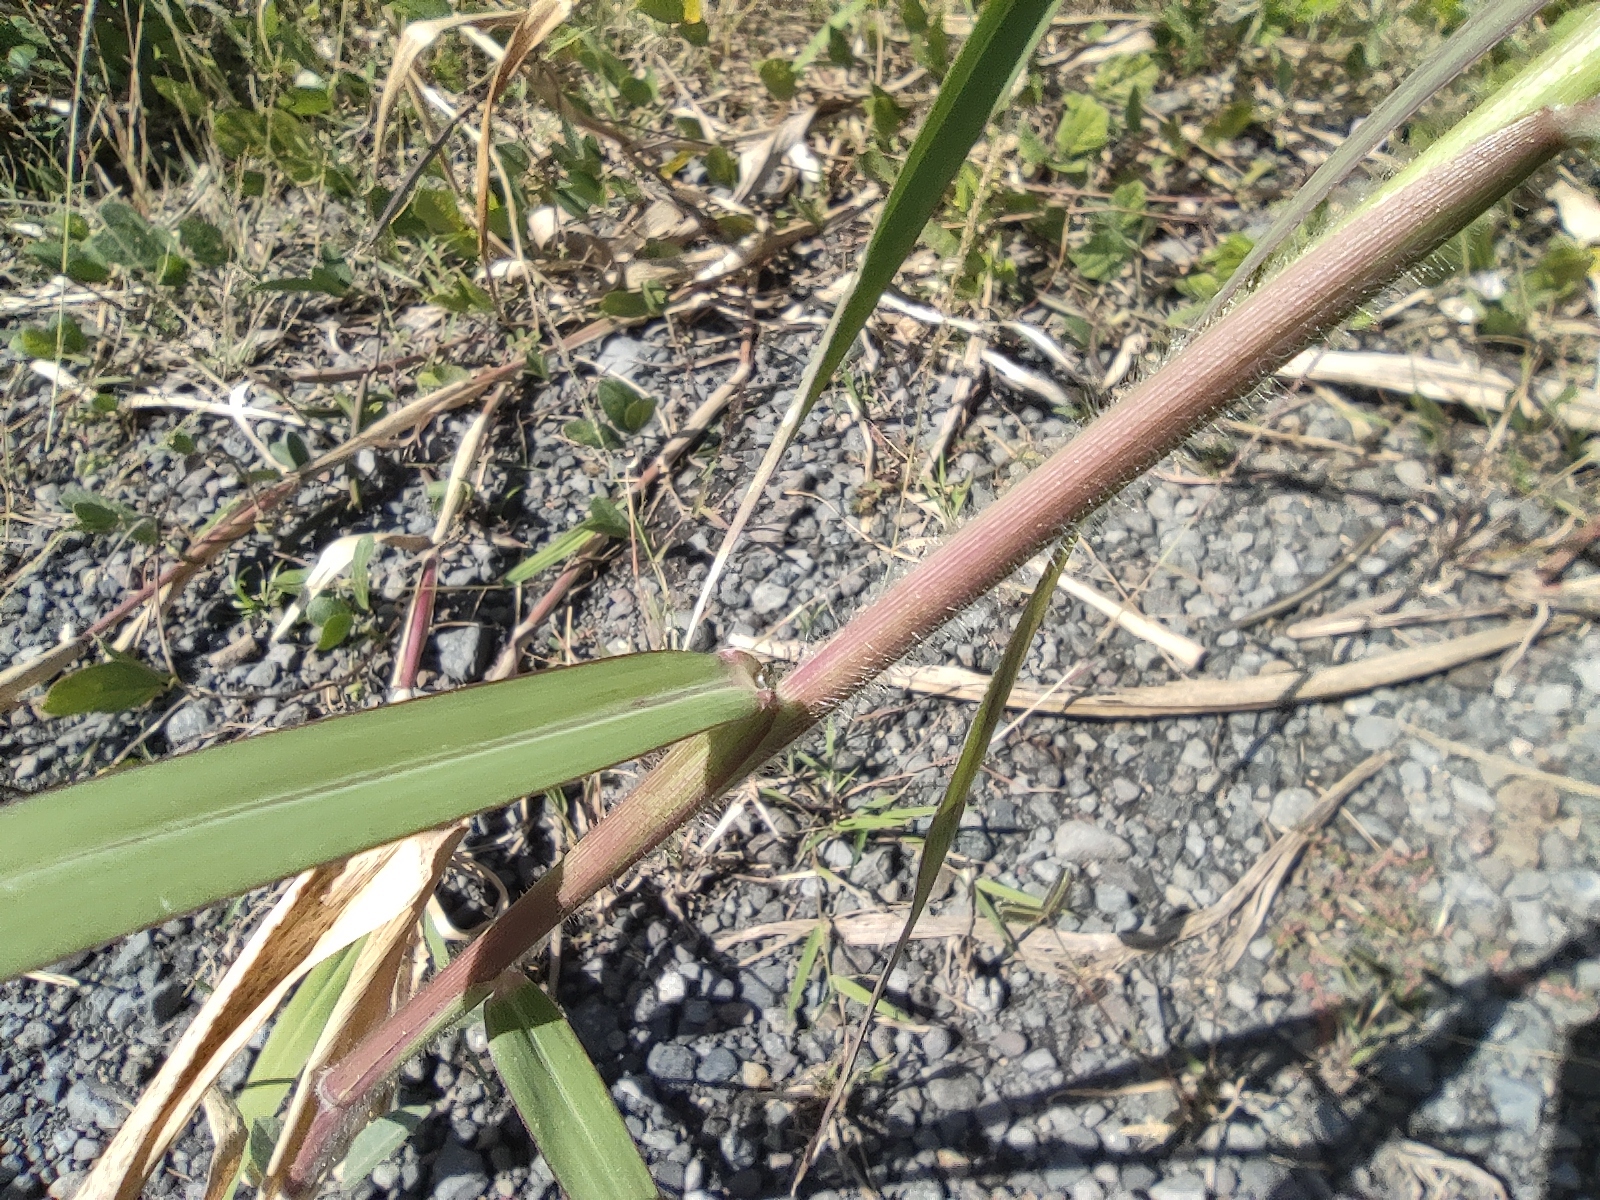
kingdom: Plantae
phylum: Tracheophyta
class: Liliopsida
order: Poales
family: Poaceae
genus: Urochloa
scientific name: Urochloa mutica
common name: Para grass
